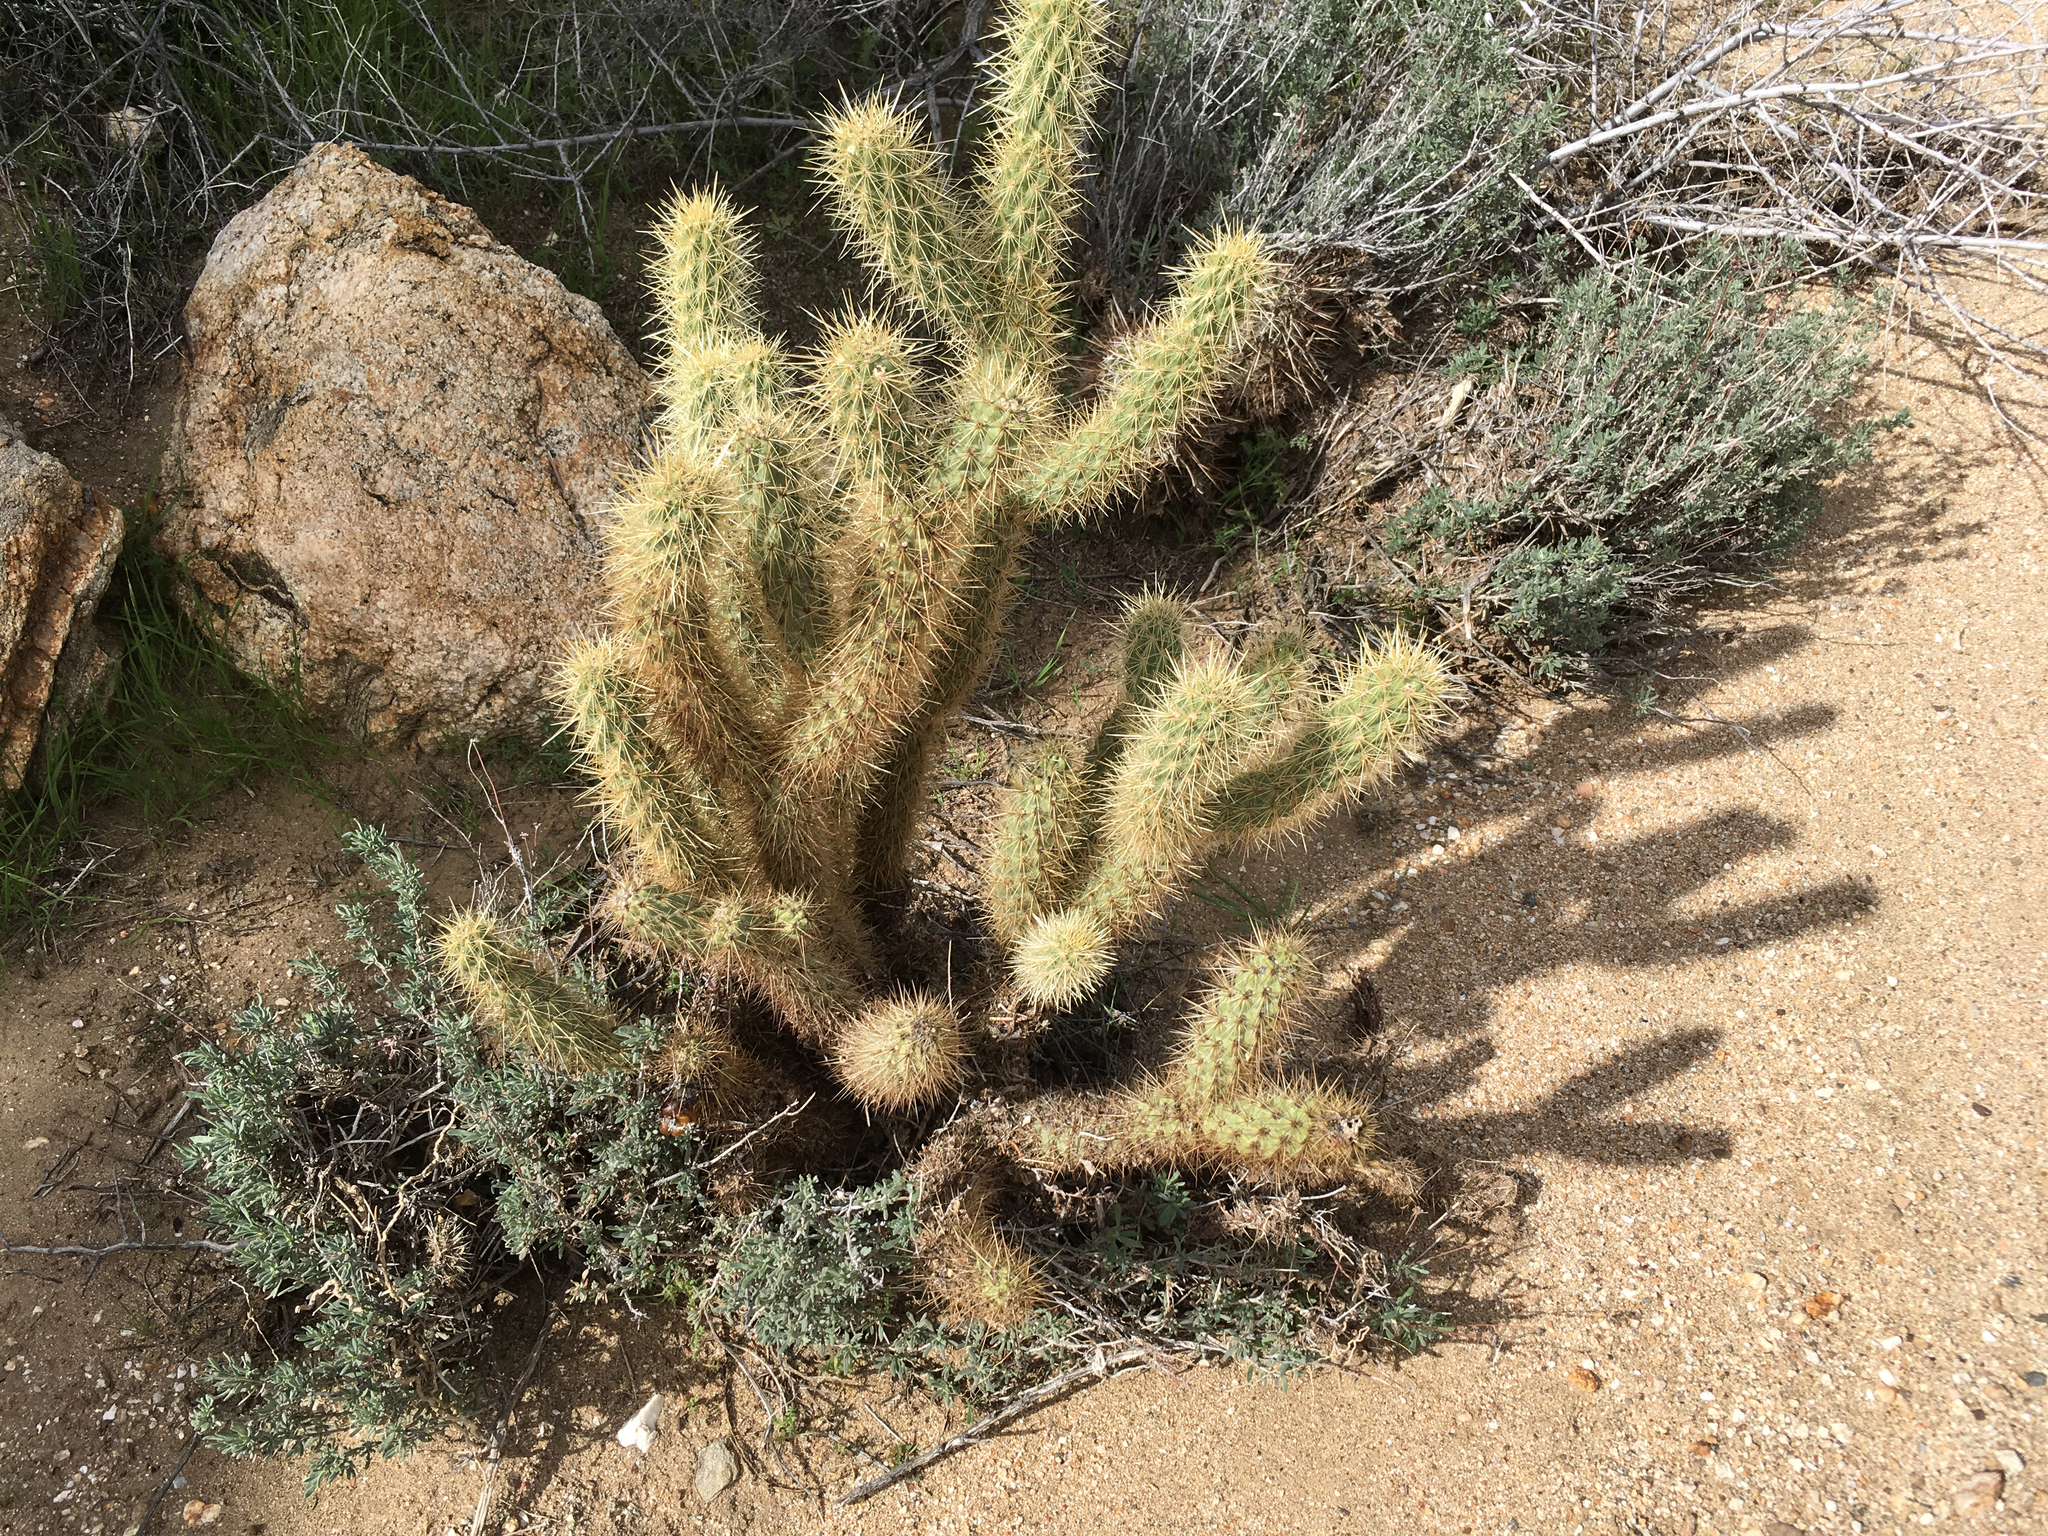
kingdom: Plantae
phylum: Tracheophyta
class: Magnoliopsida
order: Caryophyllales
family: Cactaceae
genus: Cylindropuntia
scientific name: Cylindropuntia ganderi
